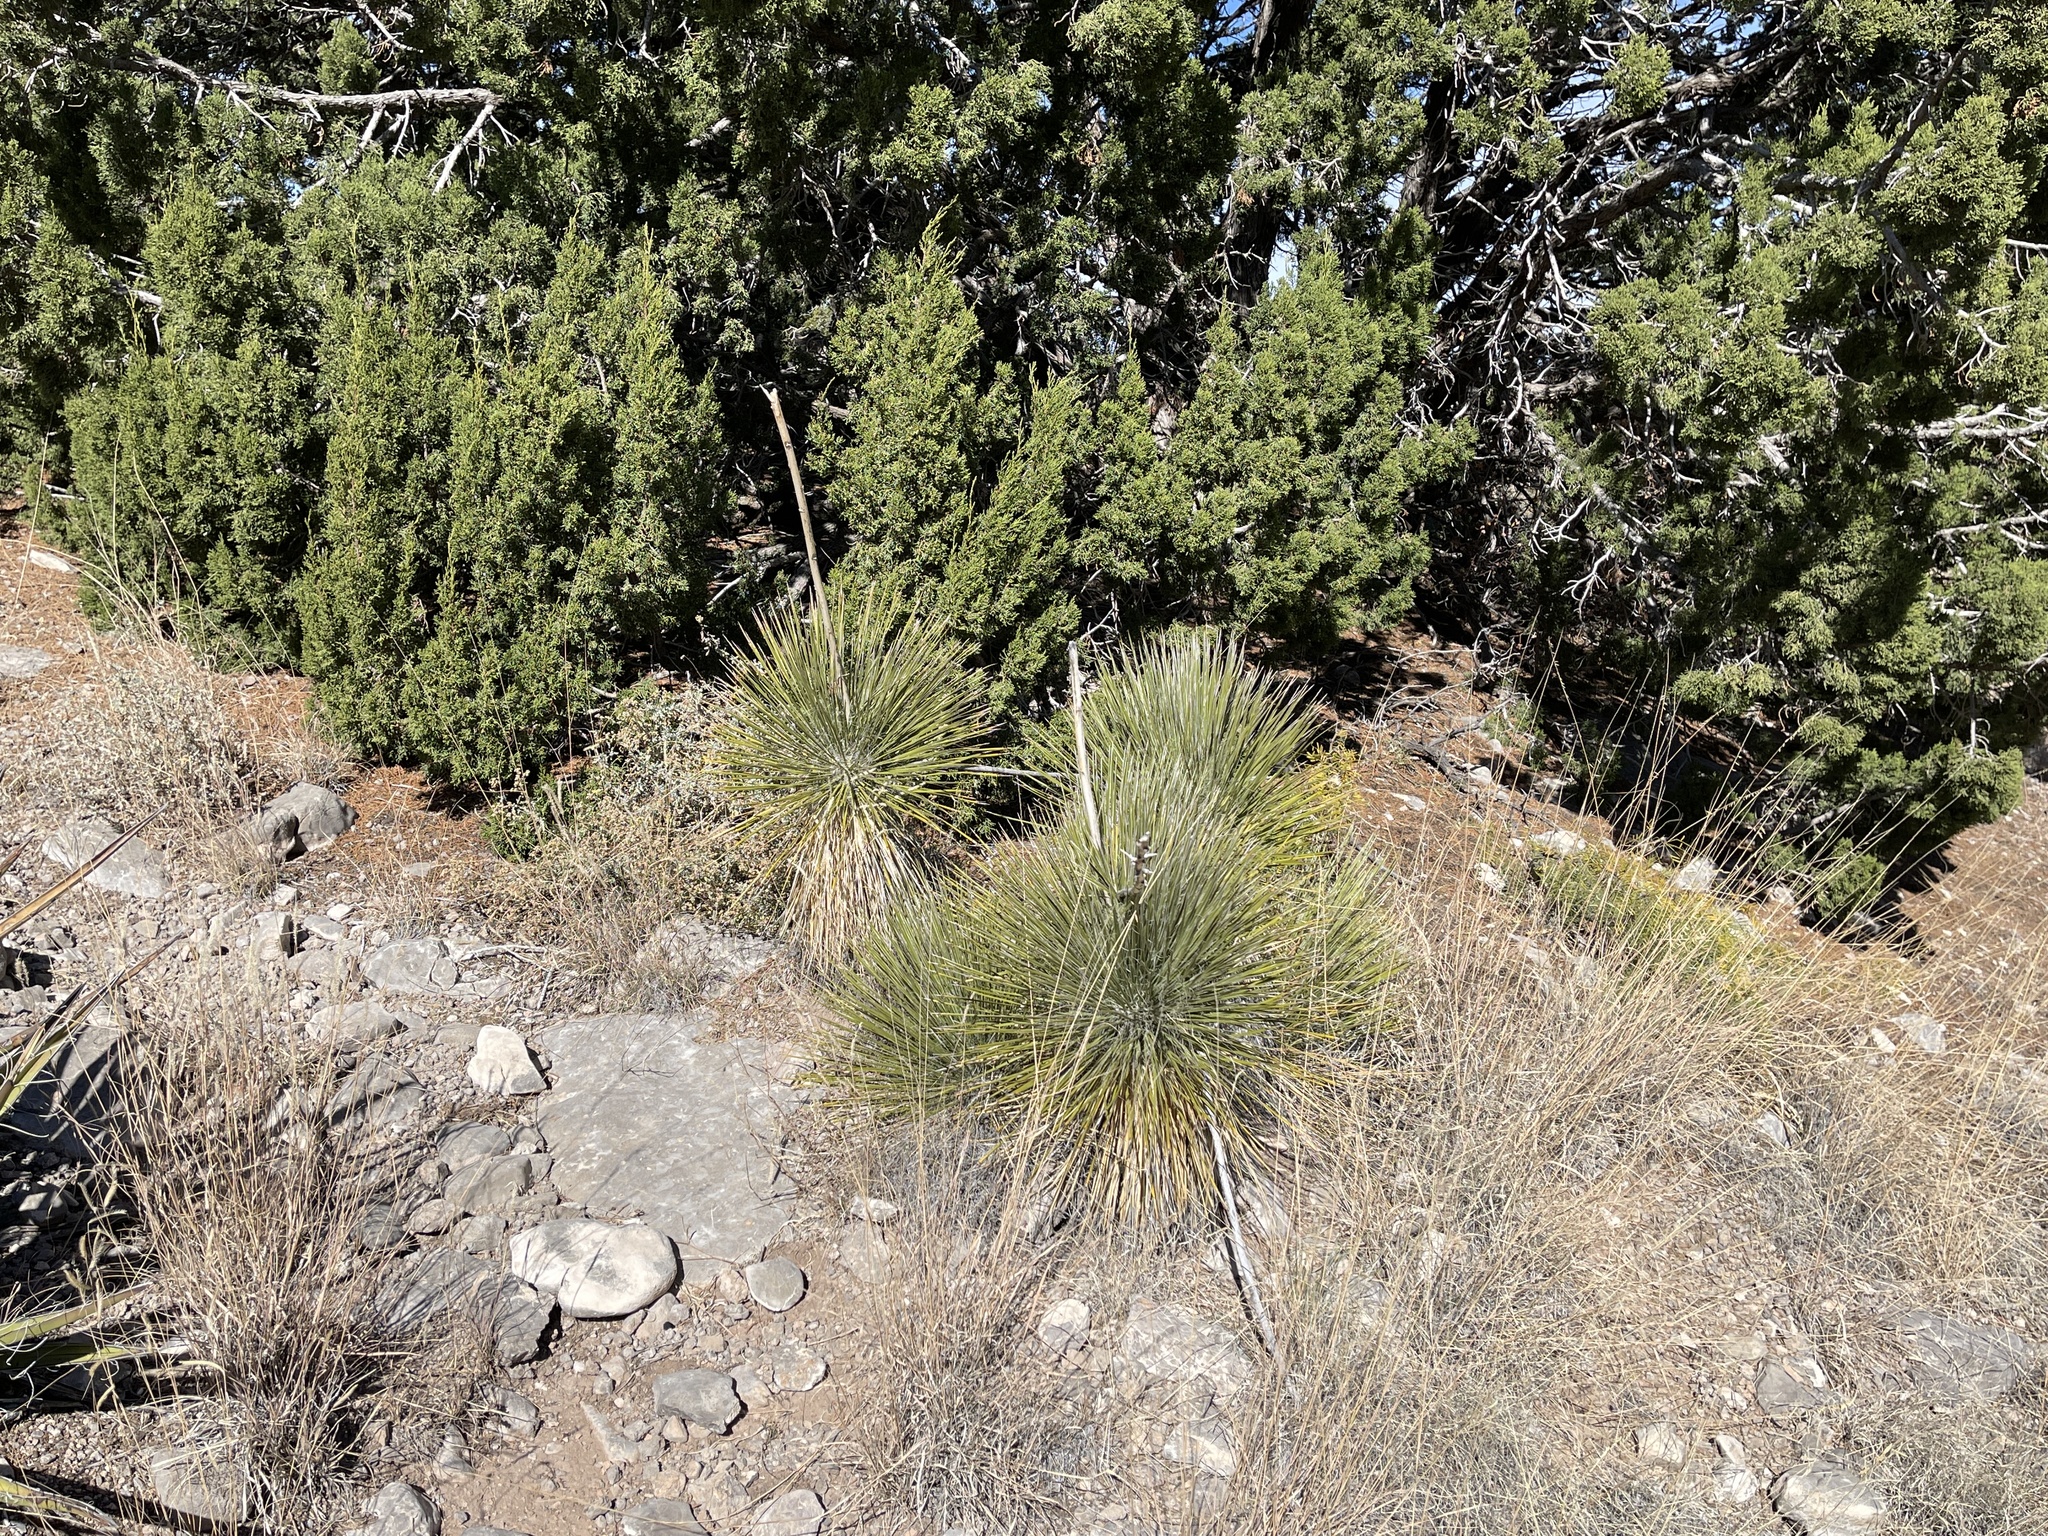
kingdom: Plantae
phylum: Tracheophyta
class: Liliopsida
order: Asparagales
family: Asparagaceae
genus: Yucca
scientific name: Yucca elata
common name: Palmella
